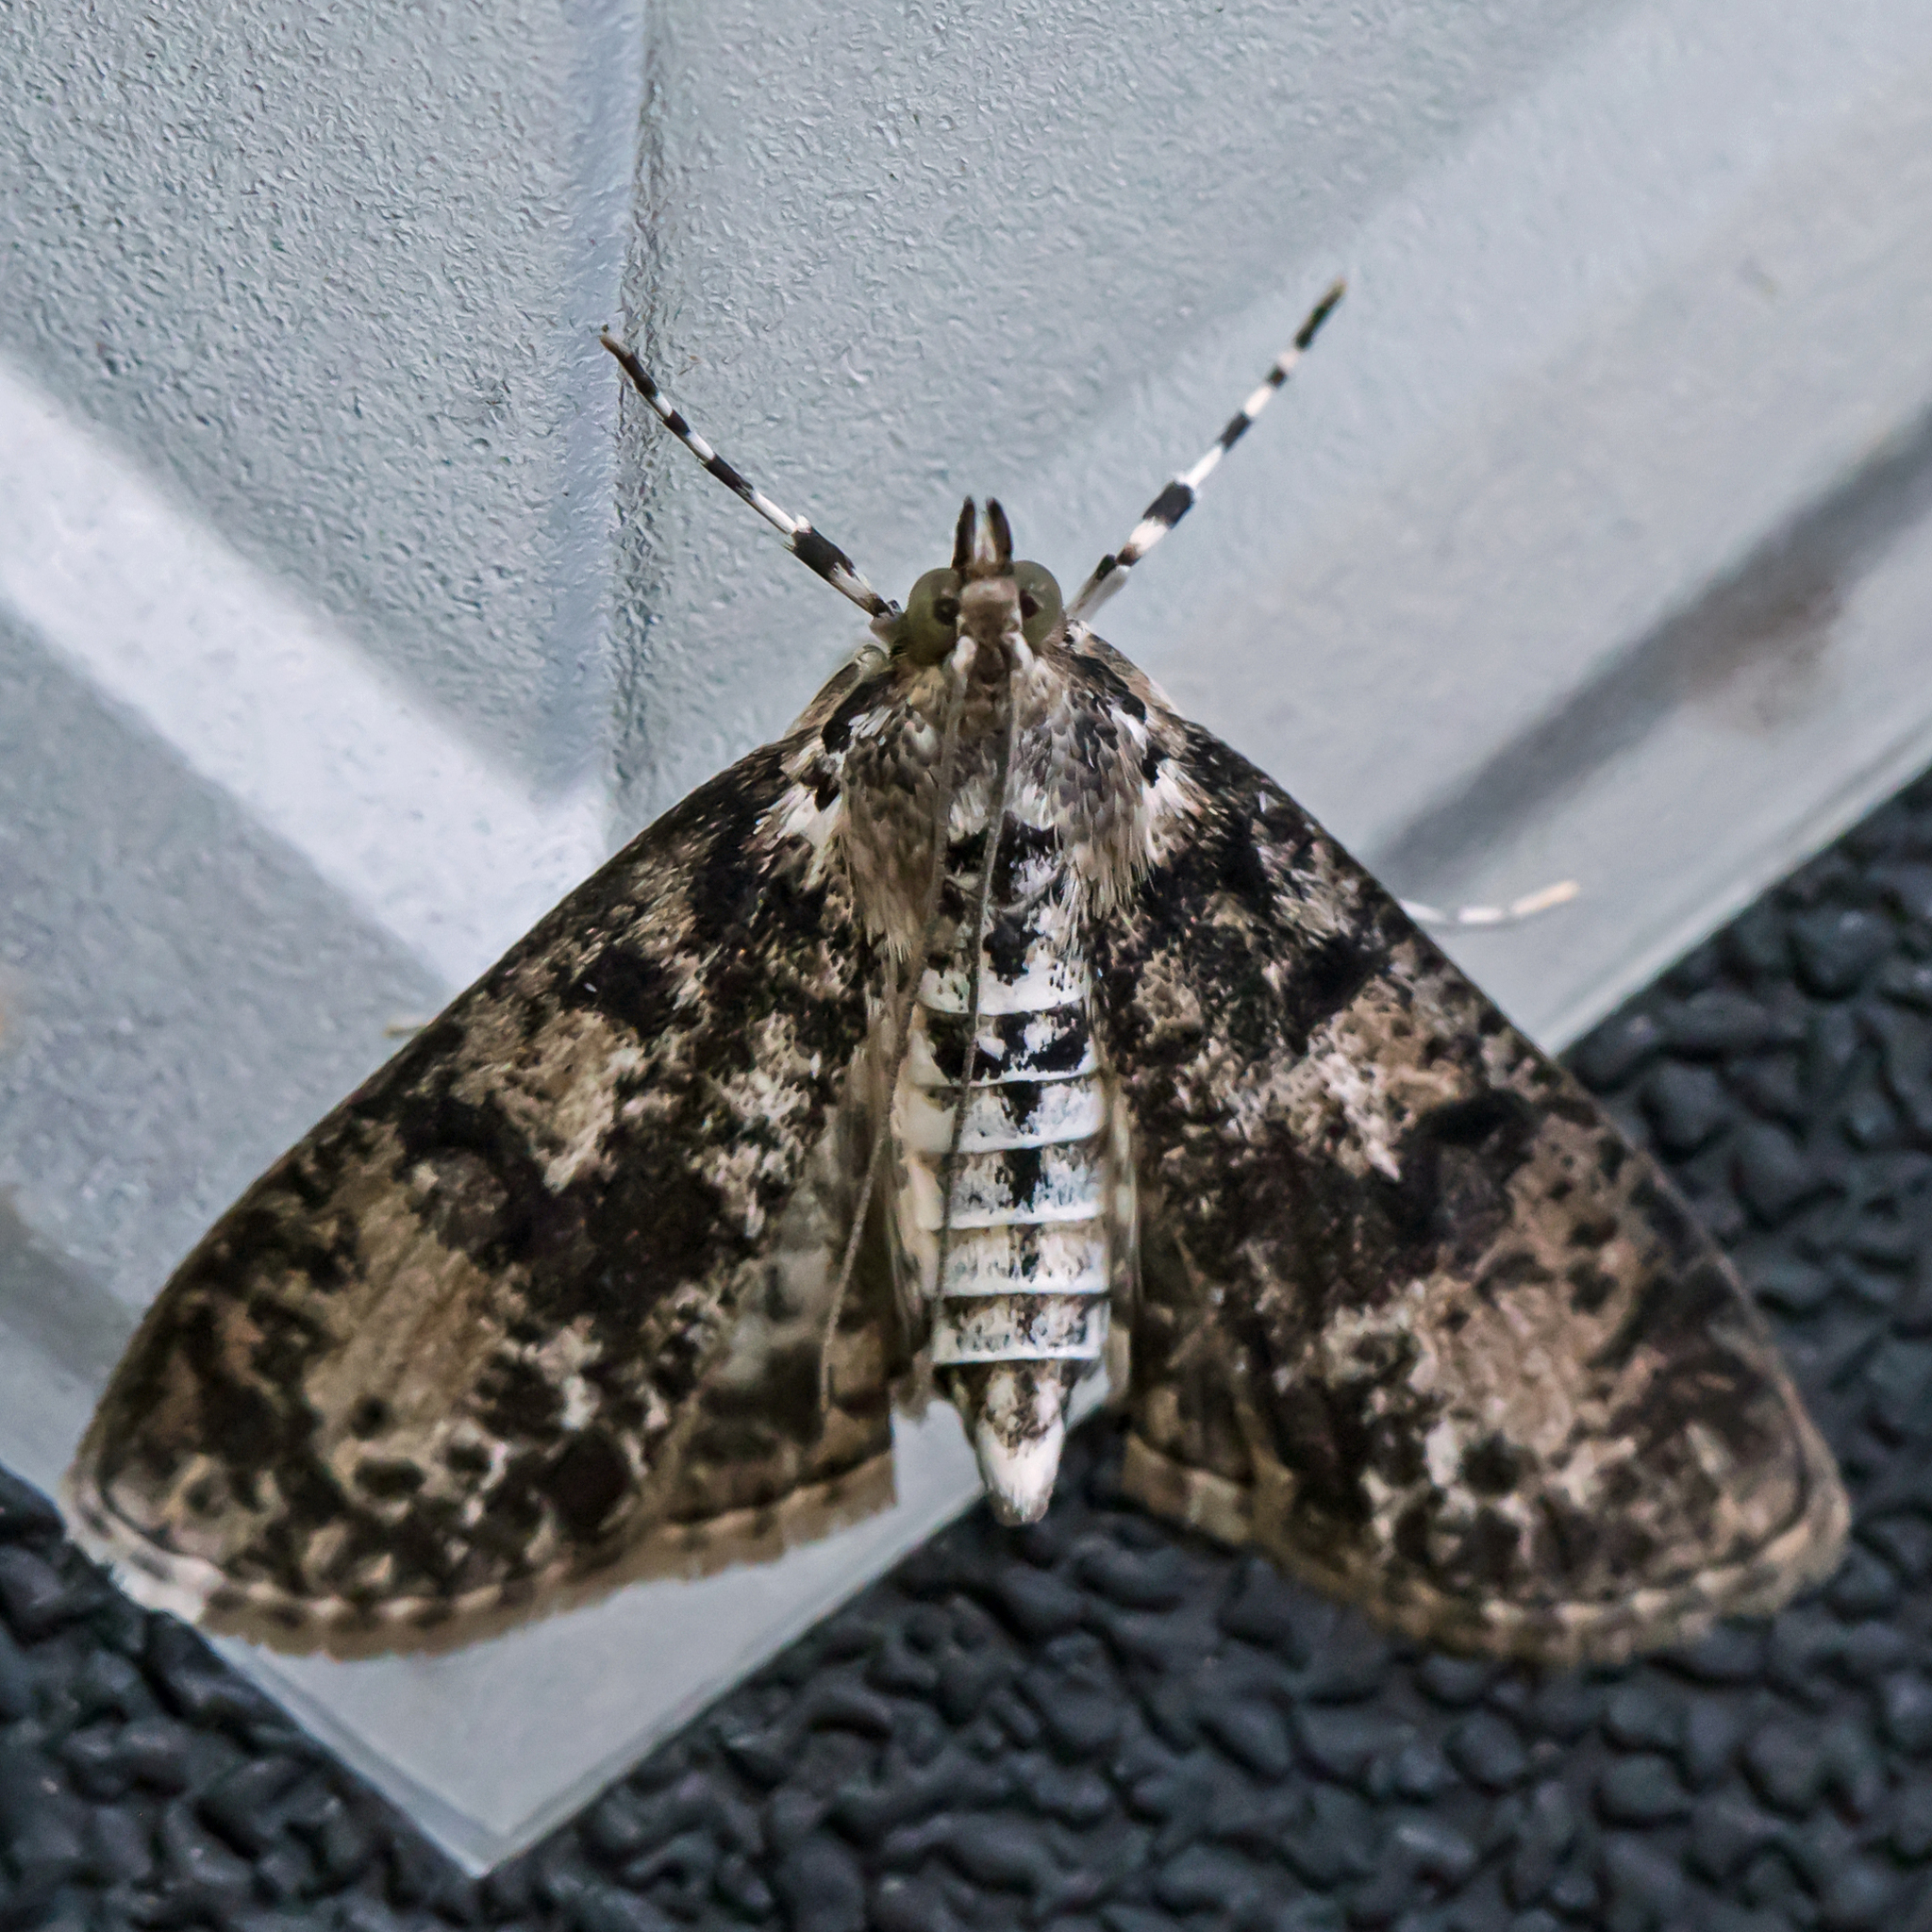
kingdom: Animalia
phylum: Arthropoda
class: Insecta
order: Lepidoptera
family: Crambidae
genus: Palpita
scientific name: Palpita magniferalis
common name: Splendid palpita moth
